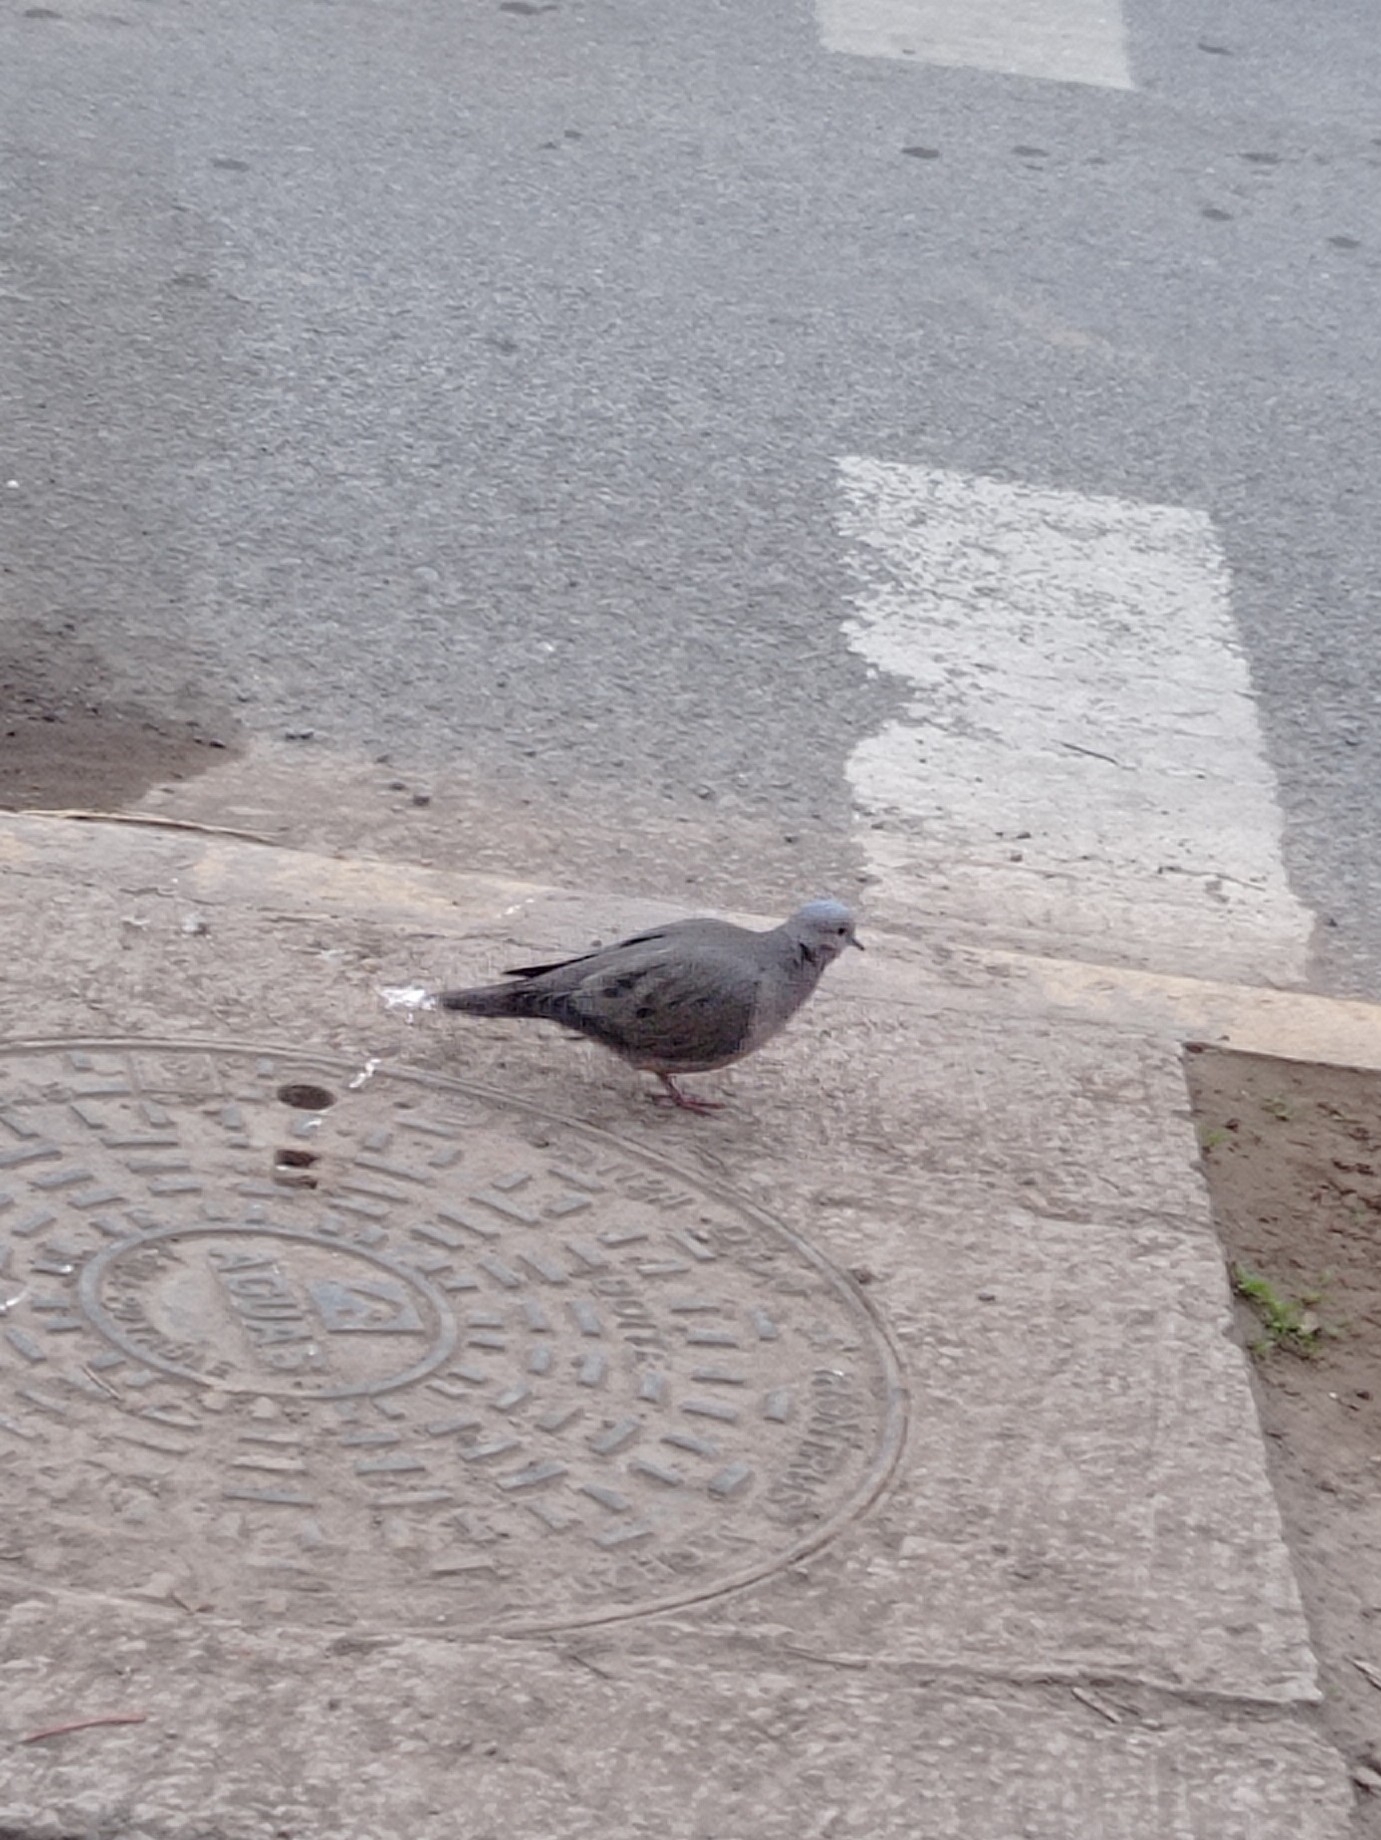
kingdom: Animalia
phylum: Chordata
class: Aves
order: Columbiformes
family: Columbidae
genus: Zenaida
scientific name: Zenaida auriculata
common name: Eared dove
